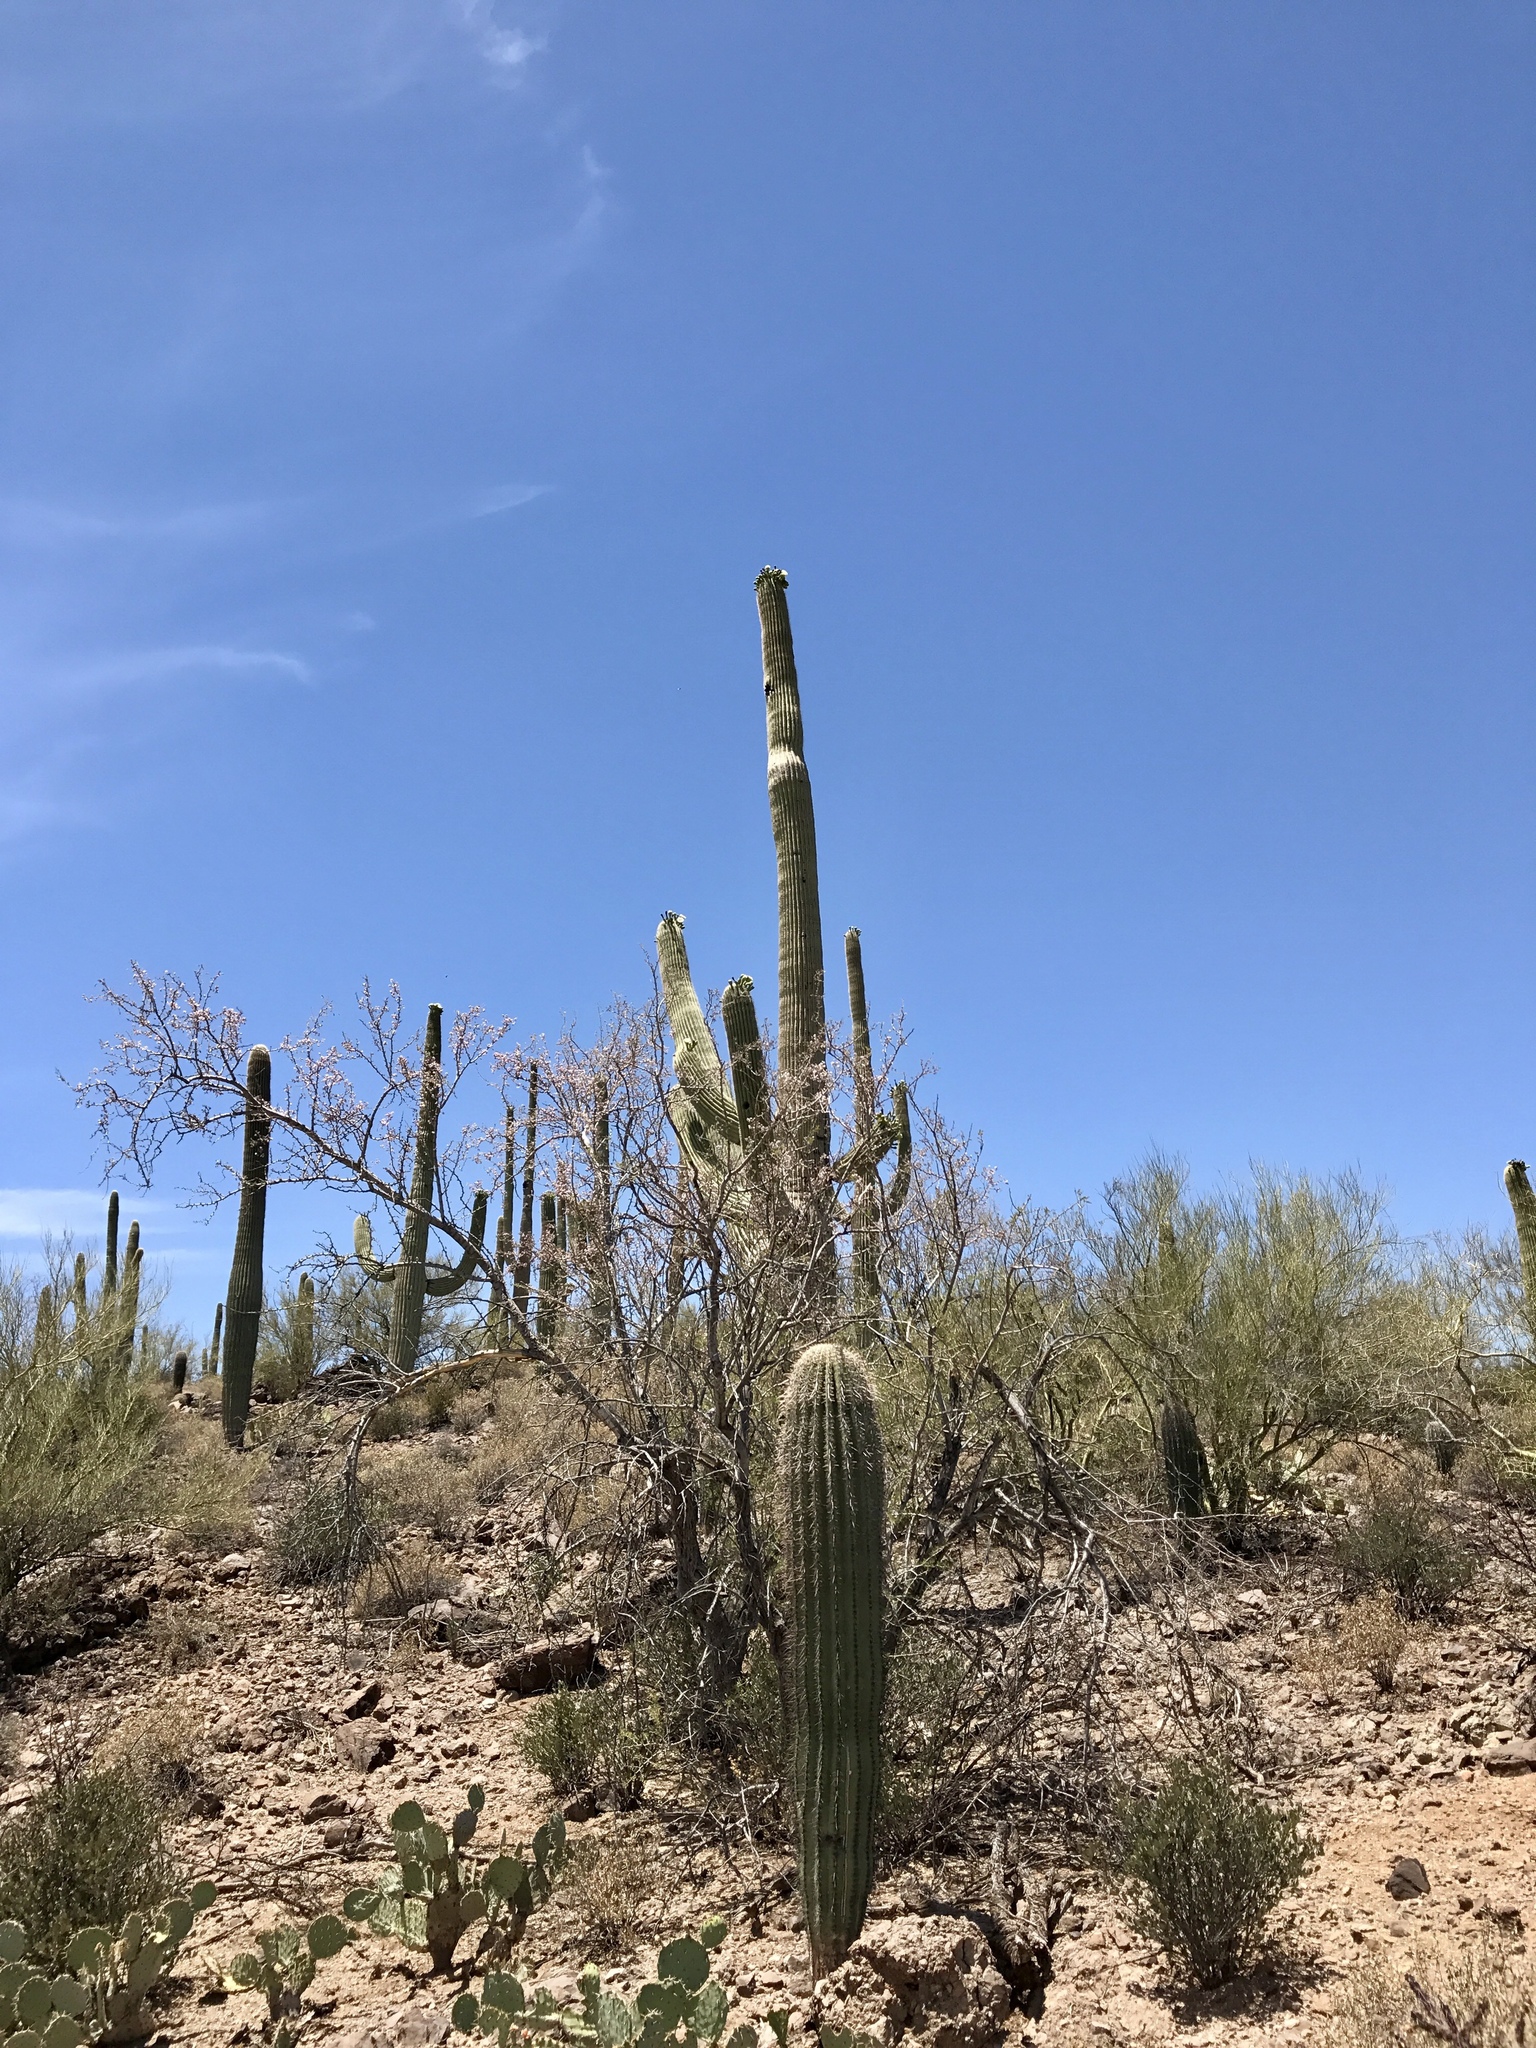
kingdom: Plantae
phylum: Tracheophyta
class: Magnoliopsida
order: Caryophyllales
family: Cactaceae
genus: Carnegiea
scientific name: Carnegiea gigantea
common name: Saguaro
